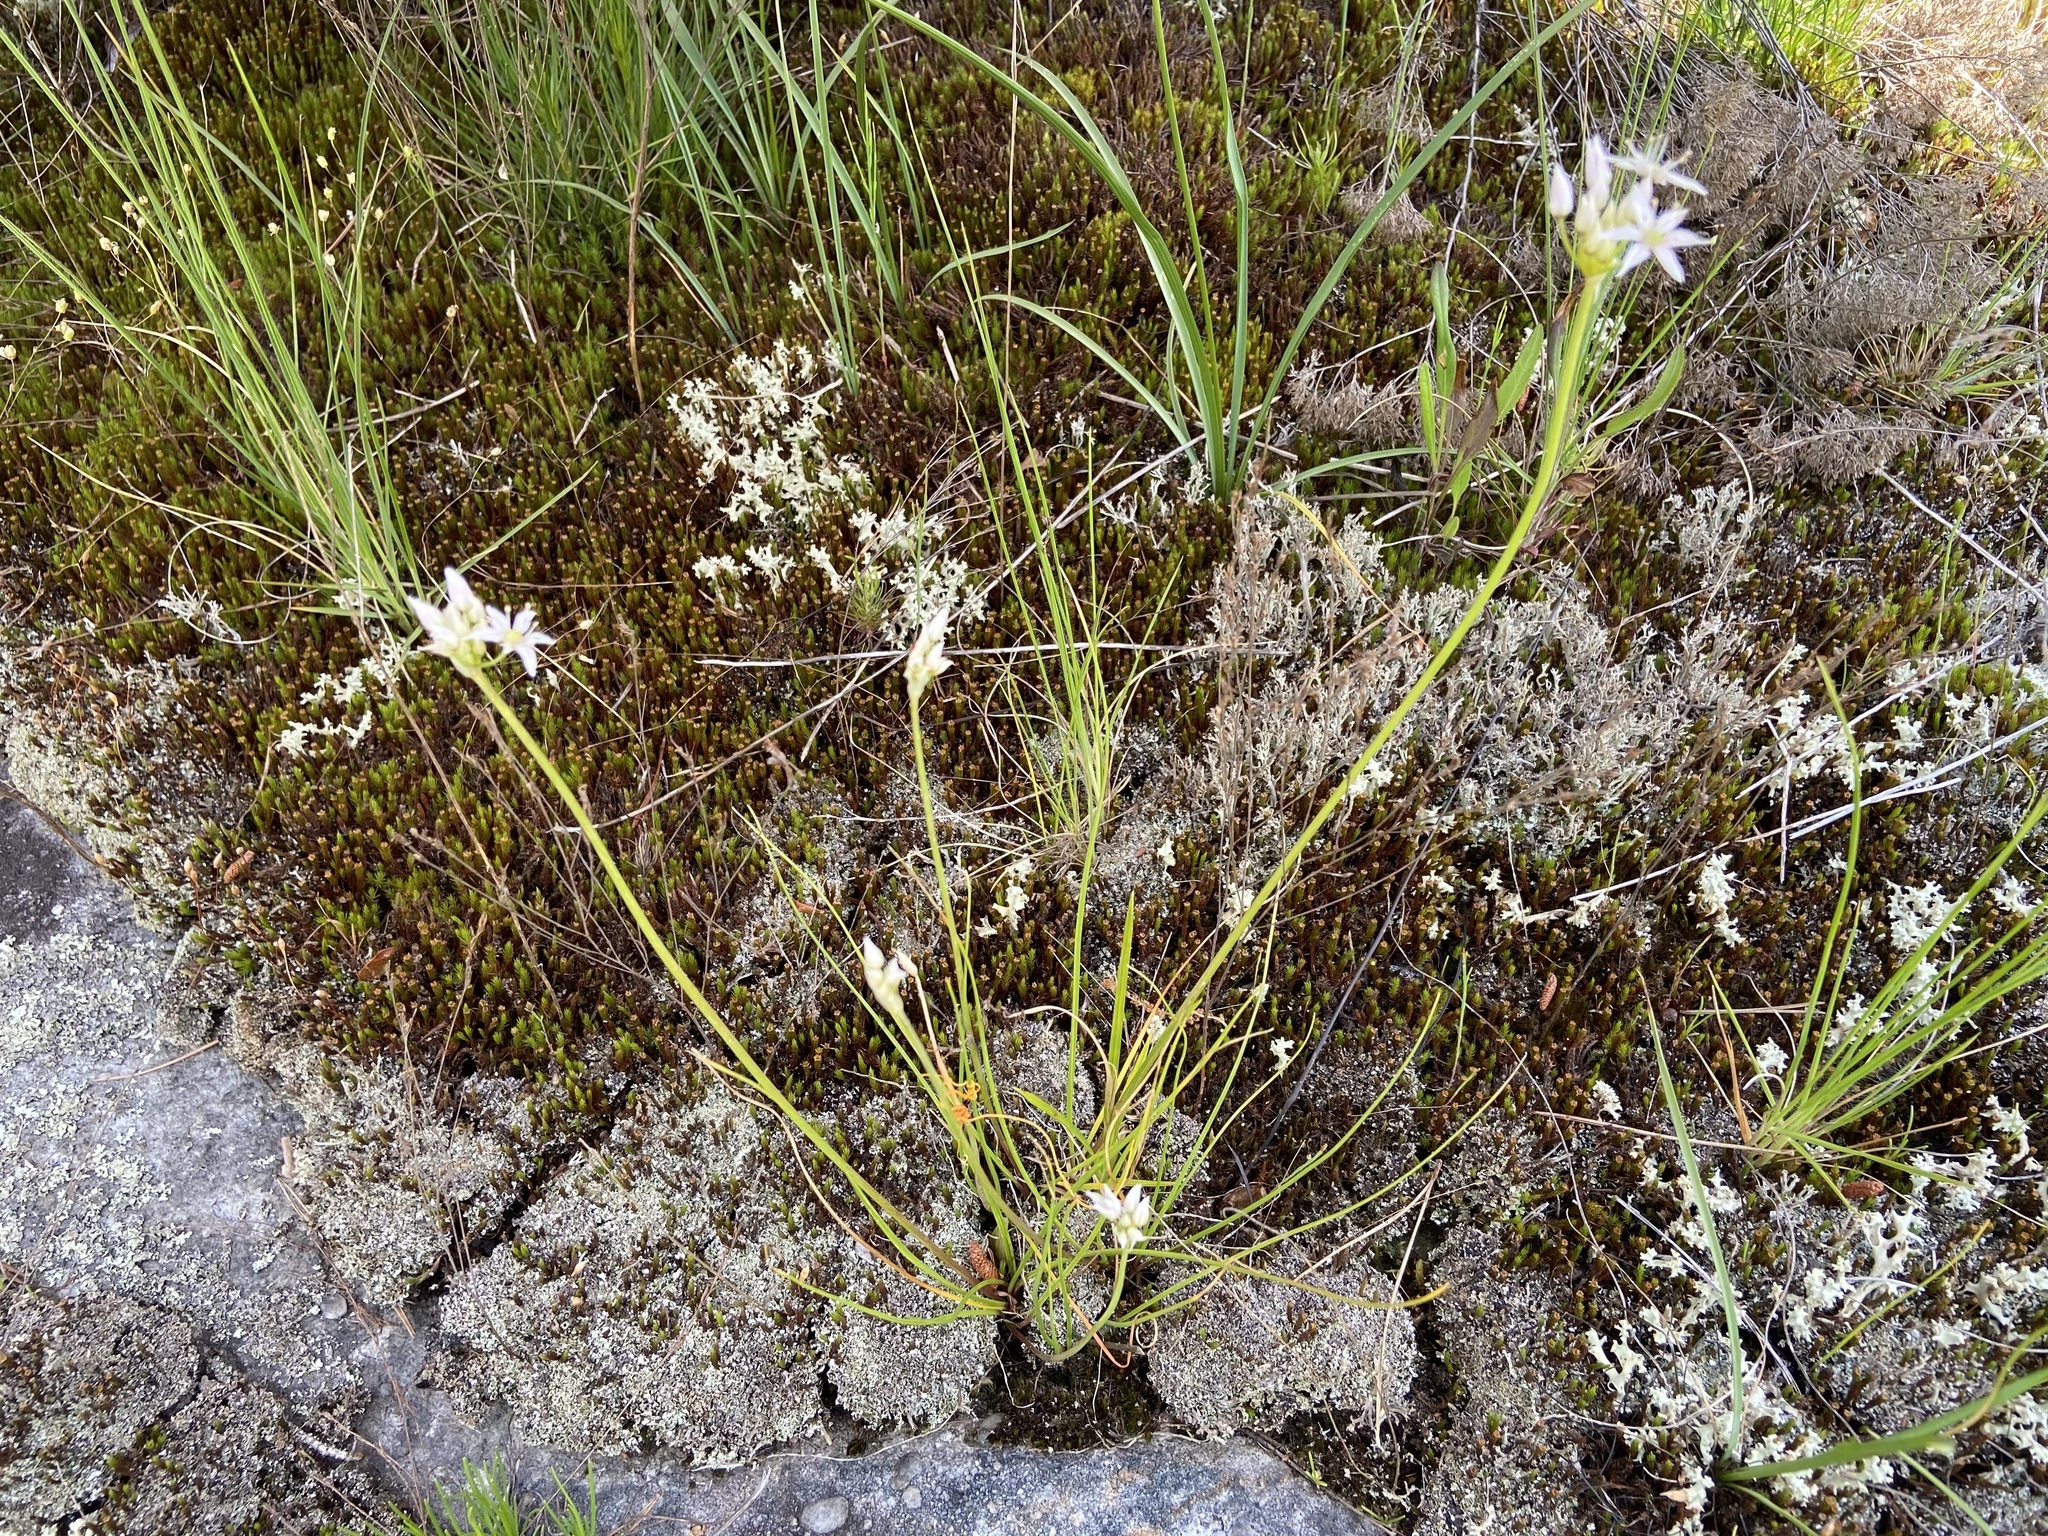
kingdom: Plantae
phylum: Tracheophyta
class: Liliopsida
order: Asparagales
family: Amaryllidaceae
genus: Allium
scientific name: Allium speculae
